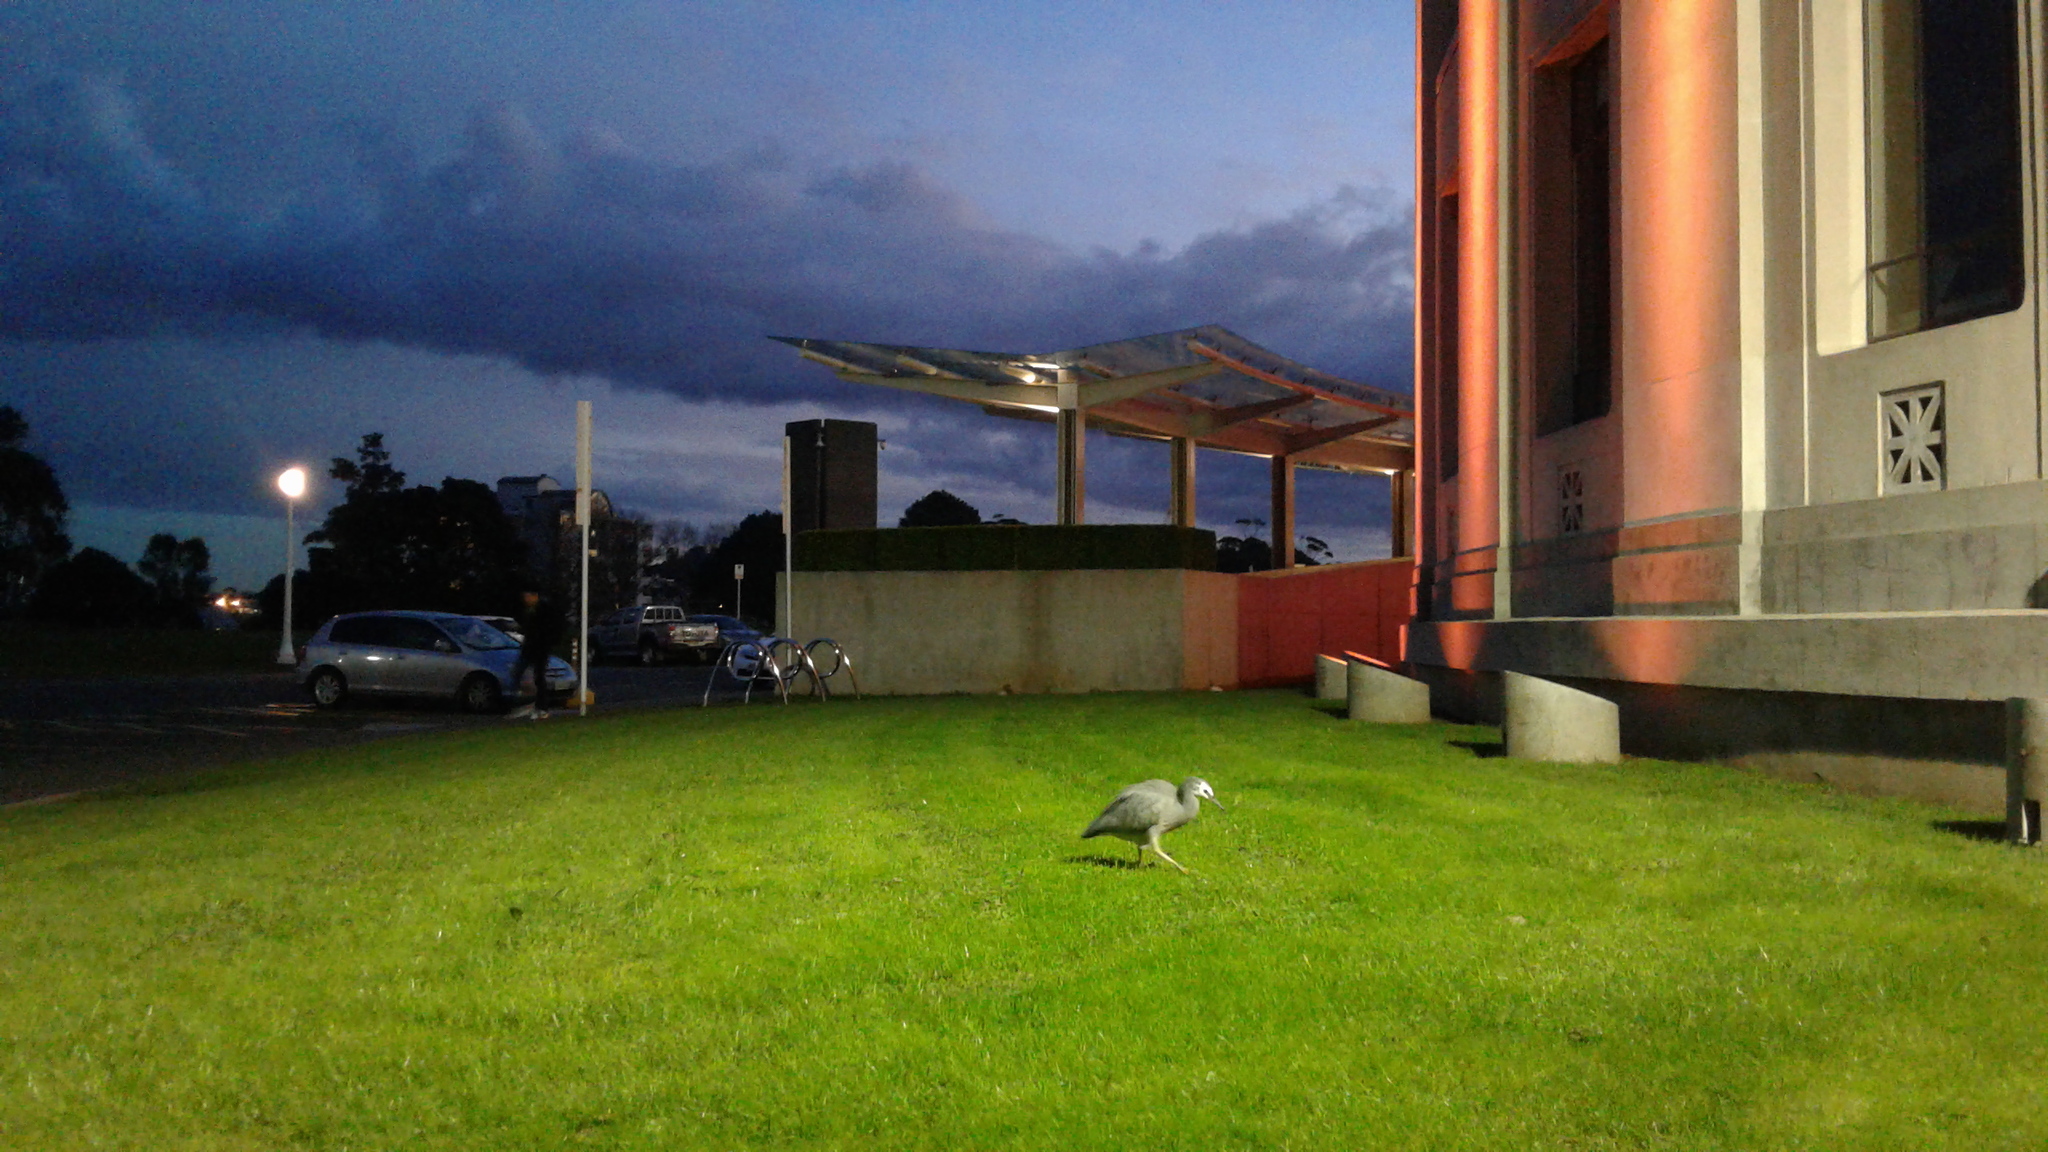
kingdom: Animalia
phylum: Chordata
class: Aves
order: Pelecaniformes
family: Ardeidae
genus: Egretta
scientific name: Egretta novaehollandiae
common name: White-faced heron
